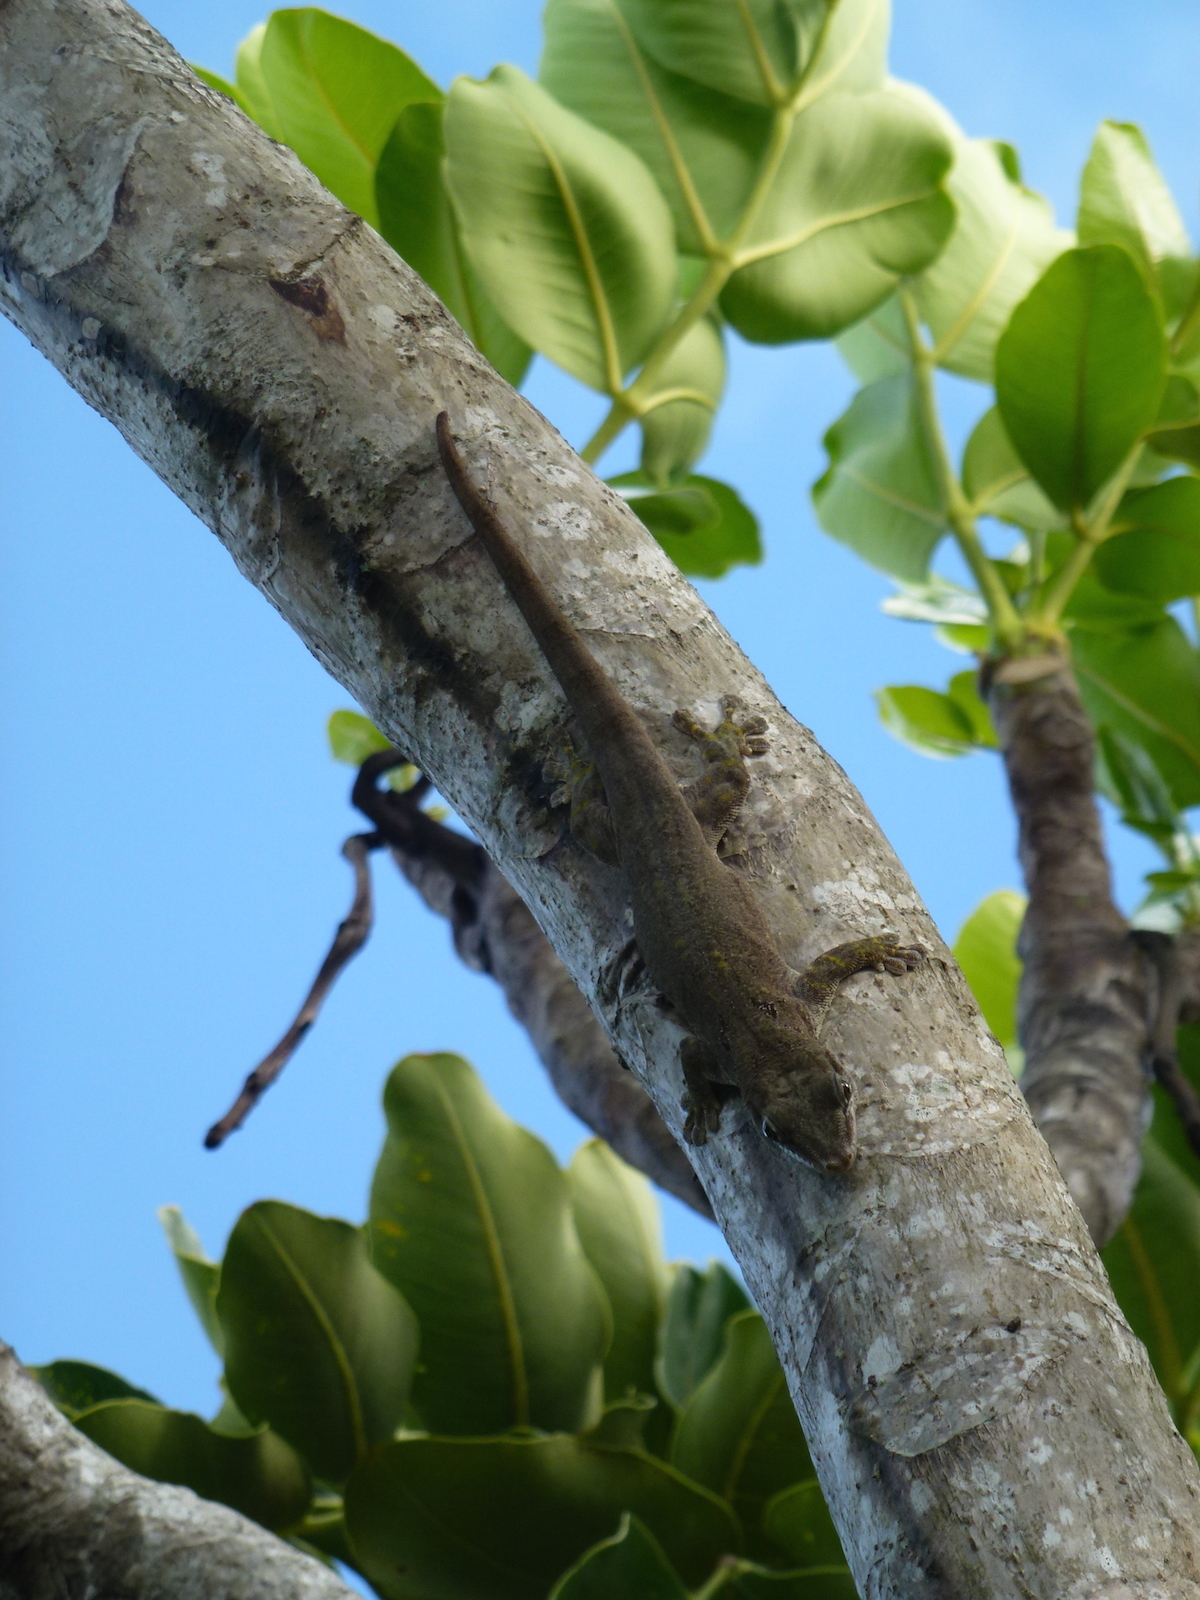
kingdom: Plantae
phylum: Tracheophyta
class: Magnoliopsida
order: Apiales
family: Araliaceae
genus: Polyscias
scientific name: Polyscias maraisiana
